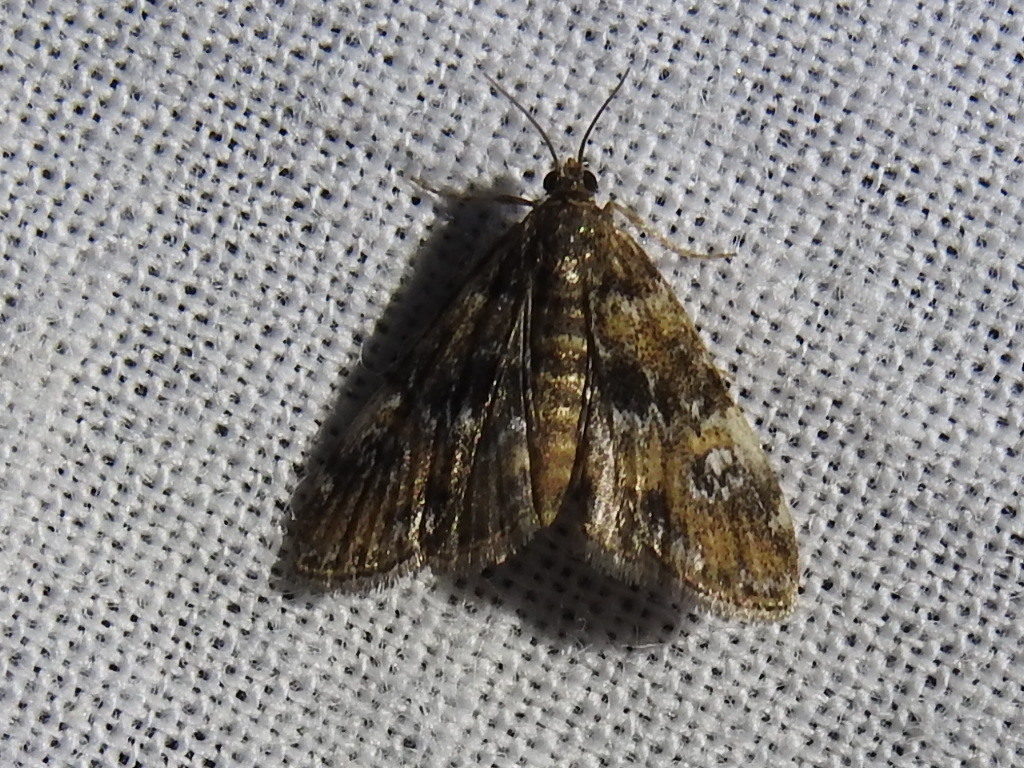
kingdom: Animalia
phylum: Arthropoda
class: Insecta
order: Lepidoptera
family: Crambidae
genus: Elophila
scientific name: Elophila obliteralis
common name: Waterlily leafcutter moth
